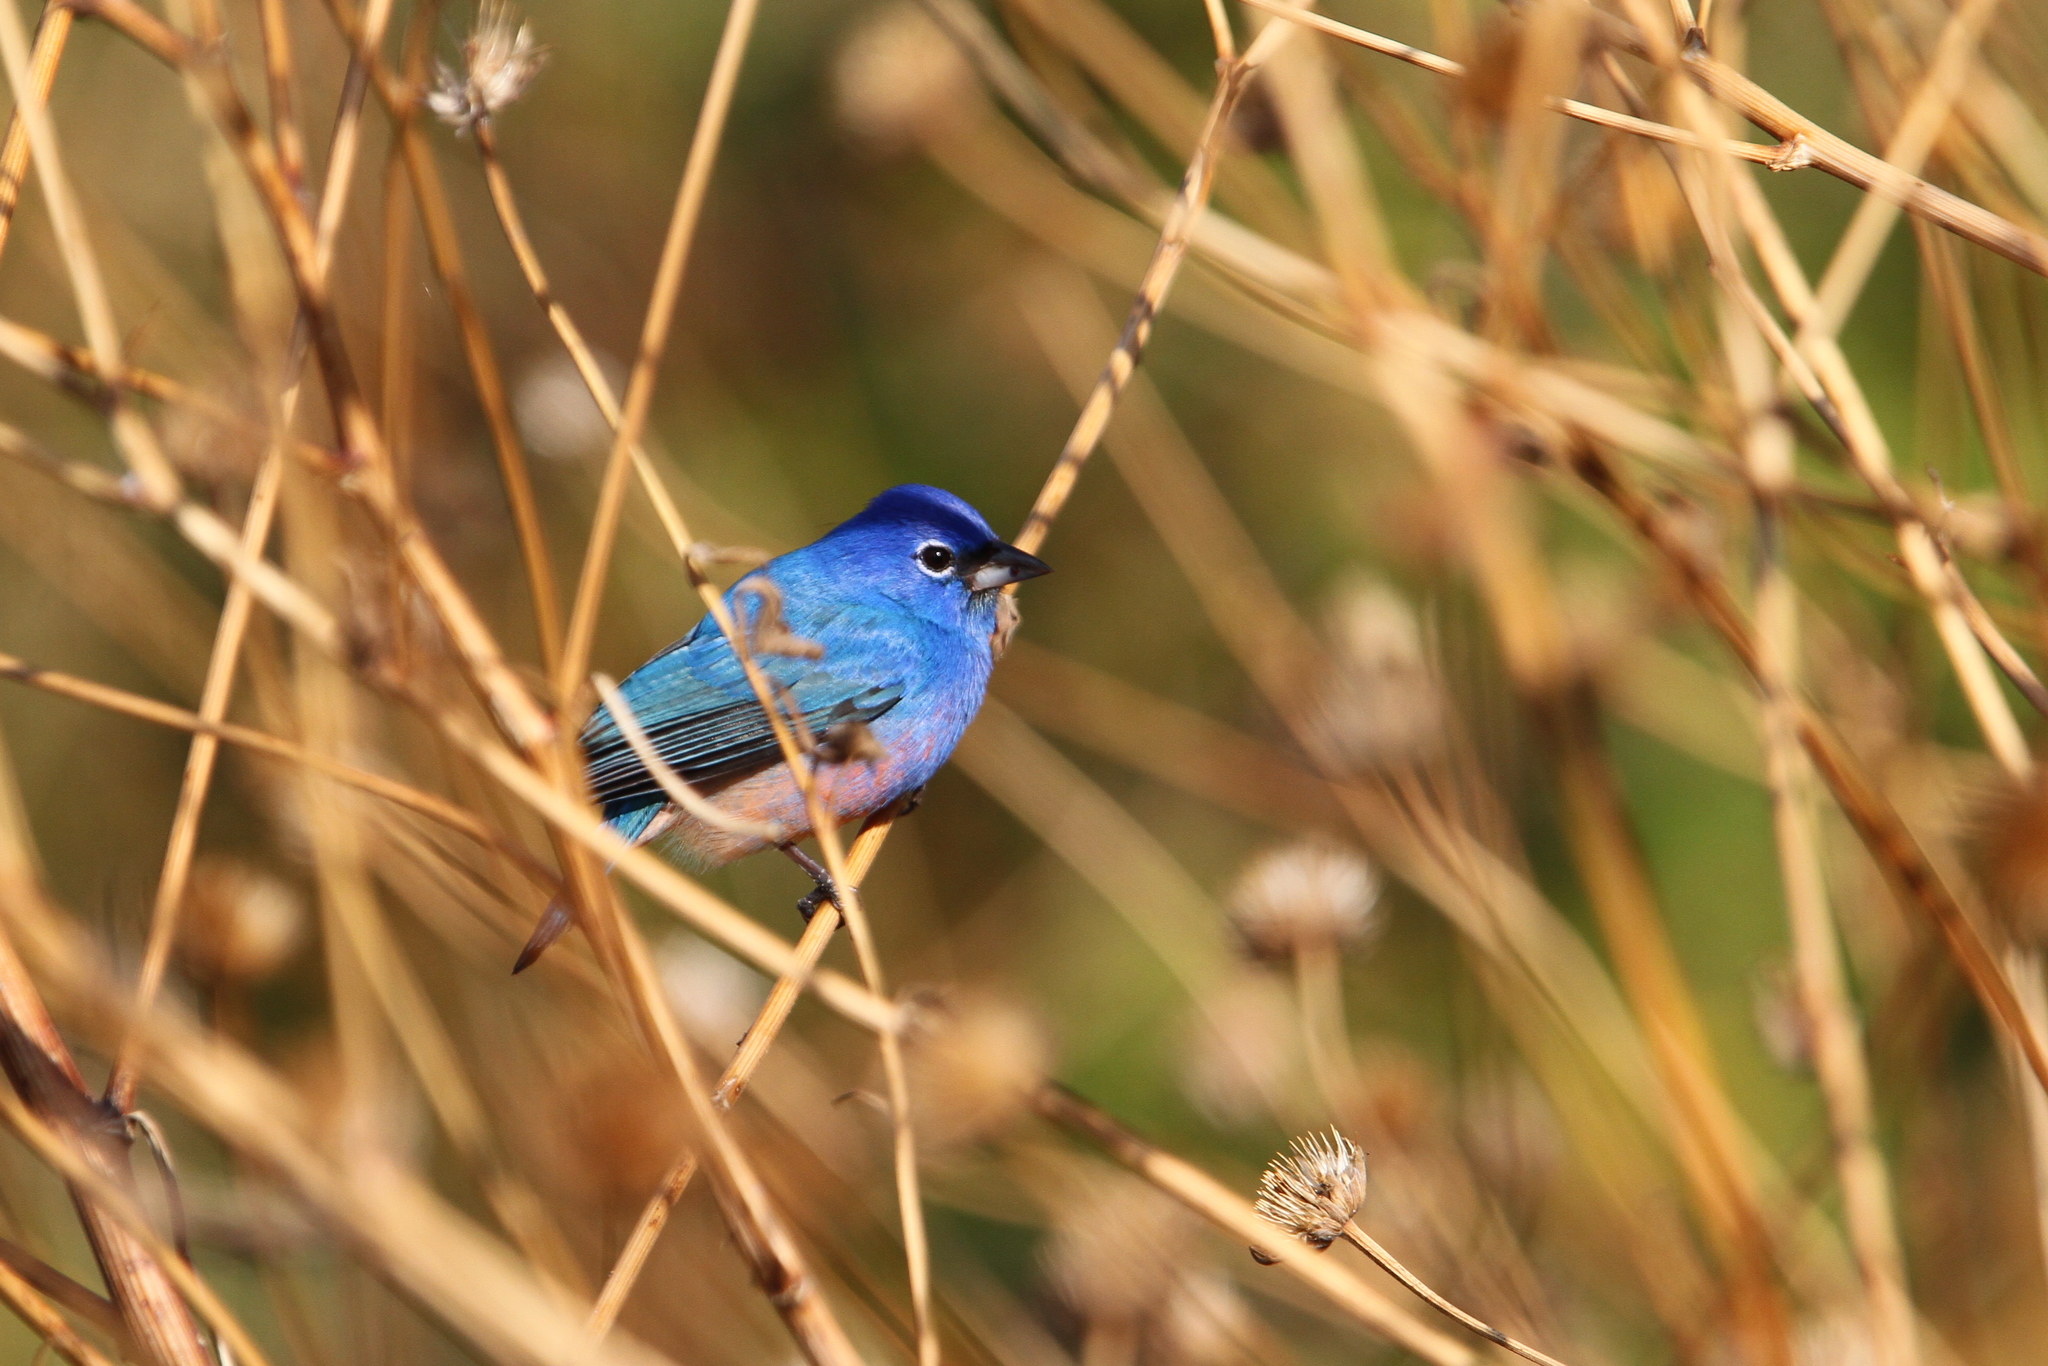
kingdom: Animalia
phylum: Chordata
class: Aves
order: Passeriformes
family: Cardinalidae
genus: Passerina
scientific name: Passerina rositae
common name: Rose-bellied bunting
